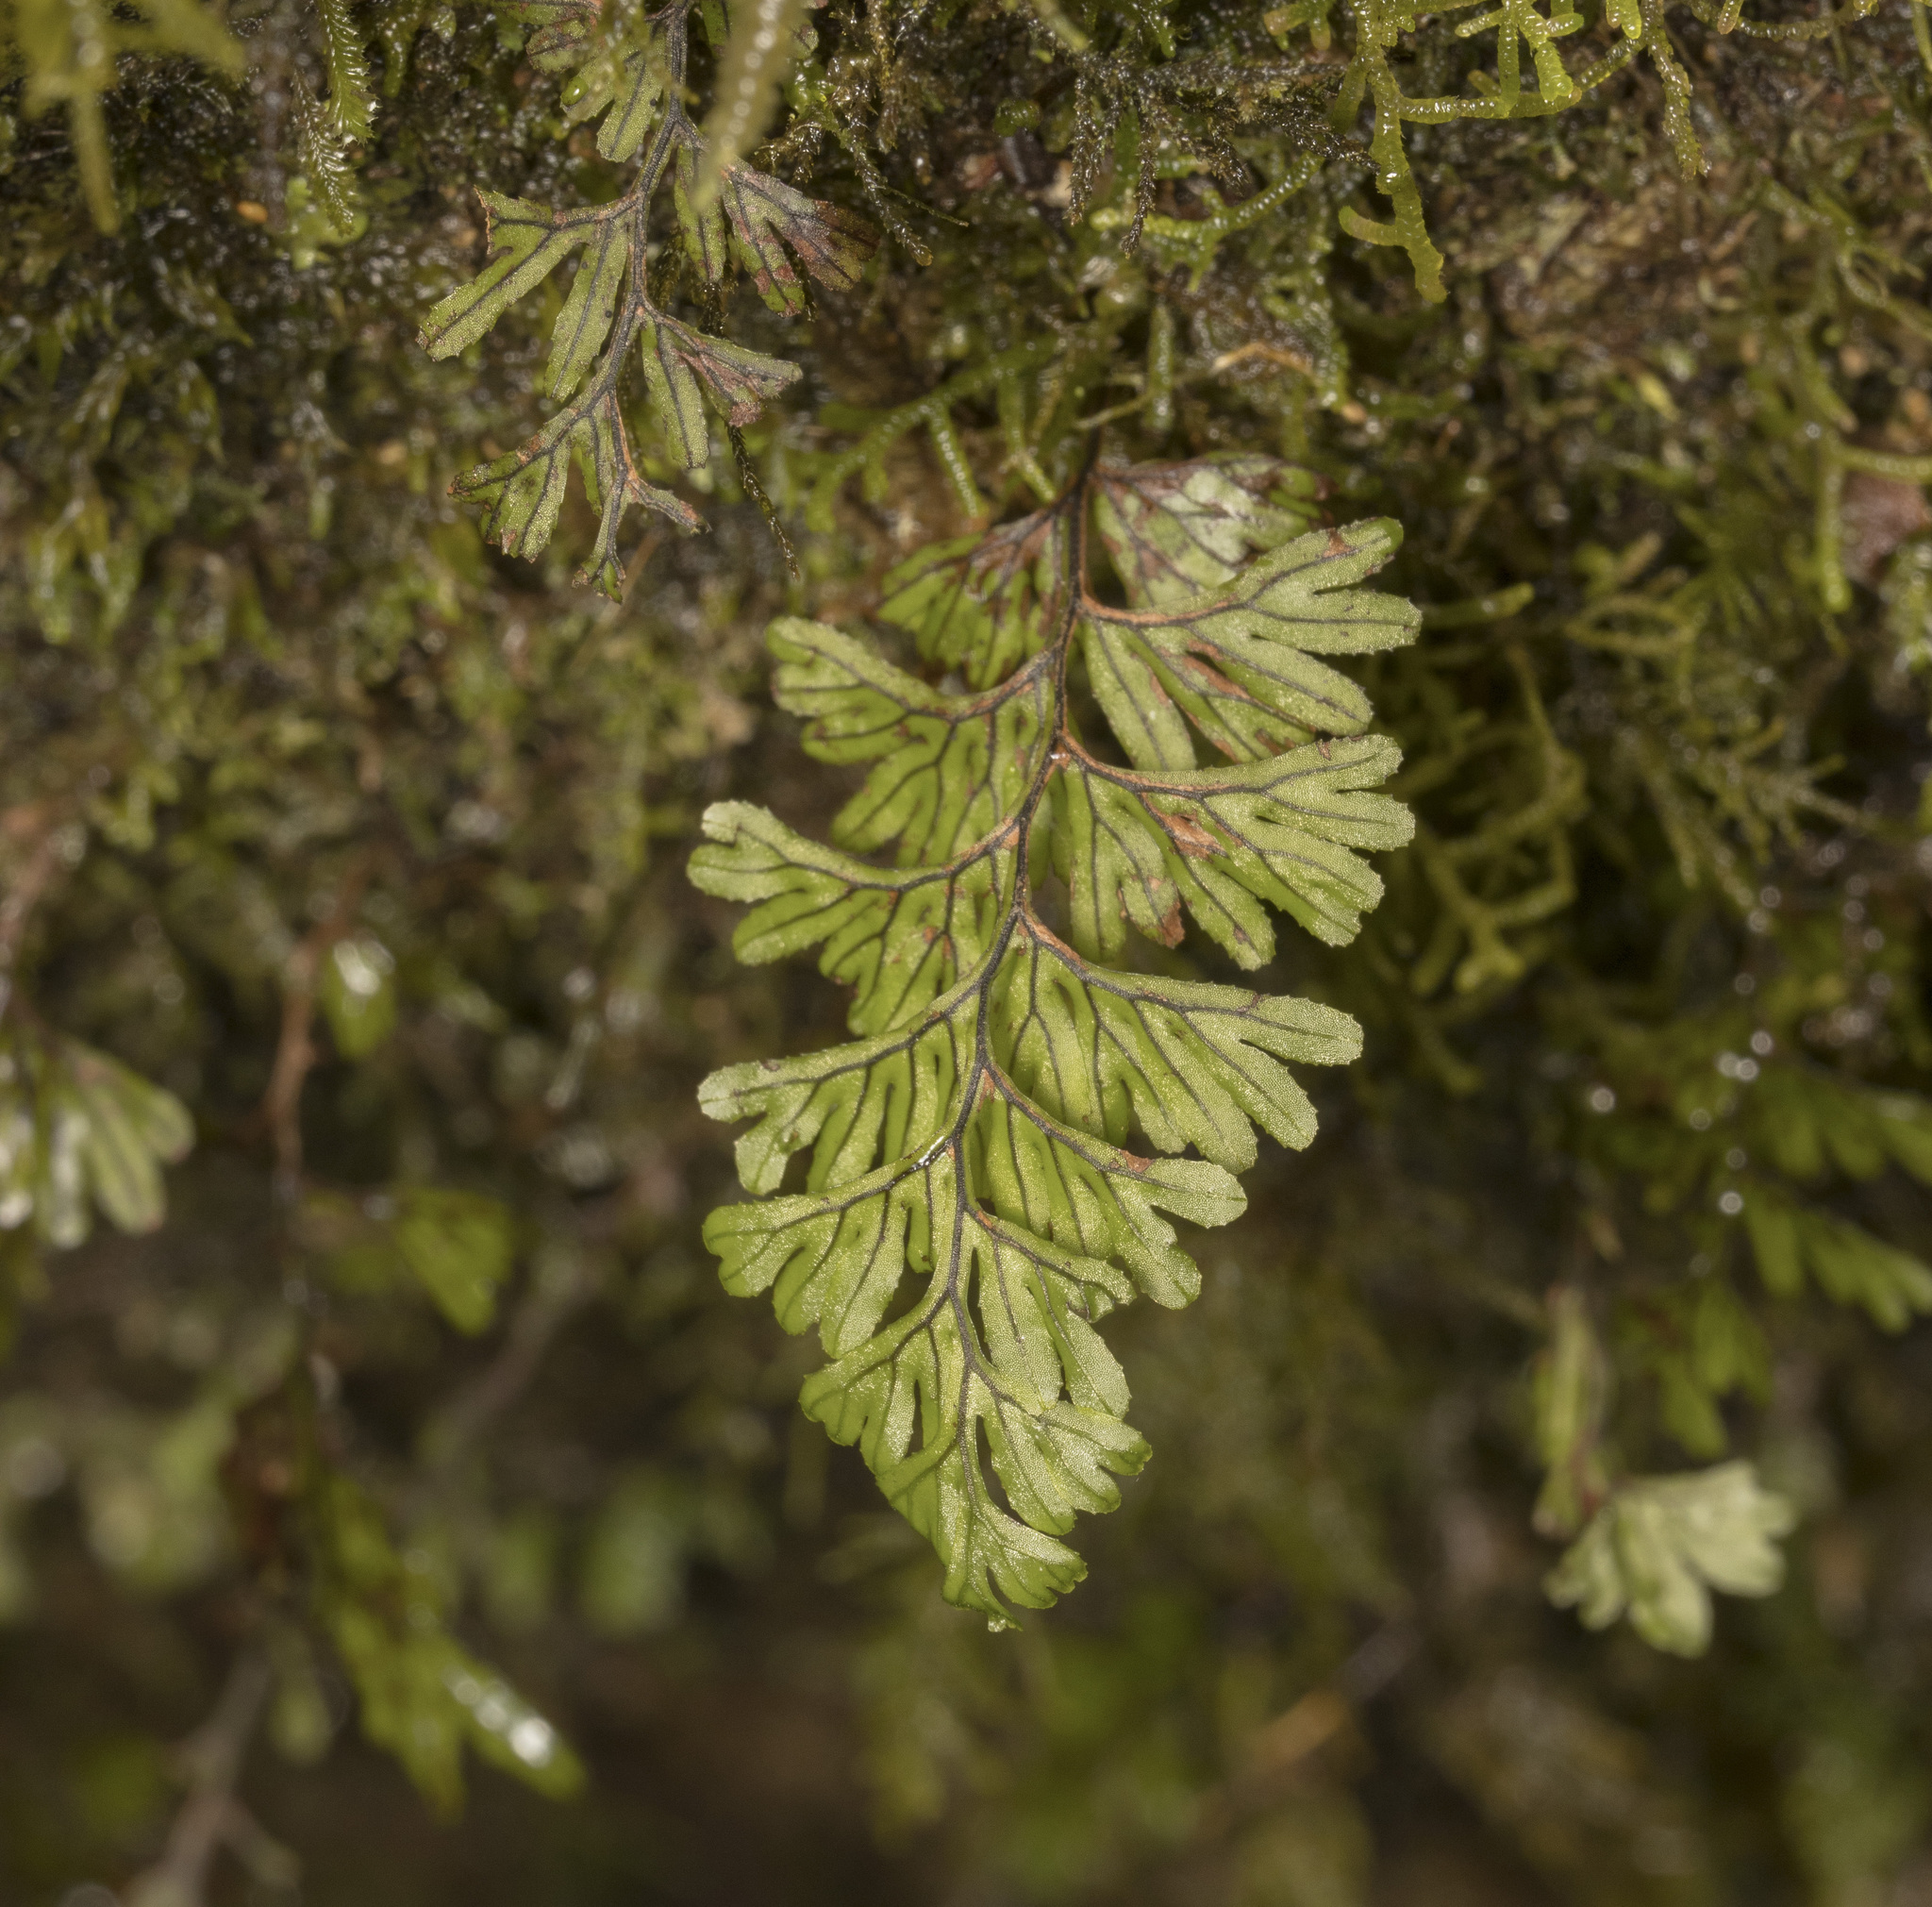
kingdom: Plantae
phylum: Tracheophyta
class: Polypodiopsida
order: Hymenophyllales
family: Hymenophyllaceae
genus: Hymenophyllum
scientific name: Hymenophyllum peltatum
